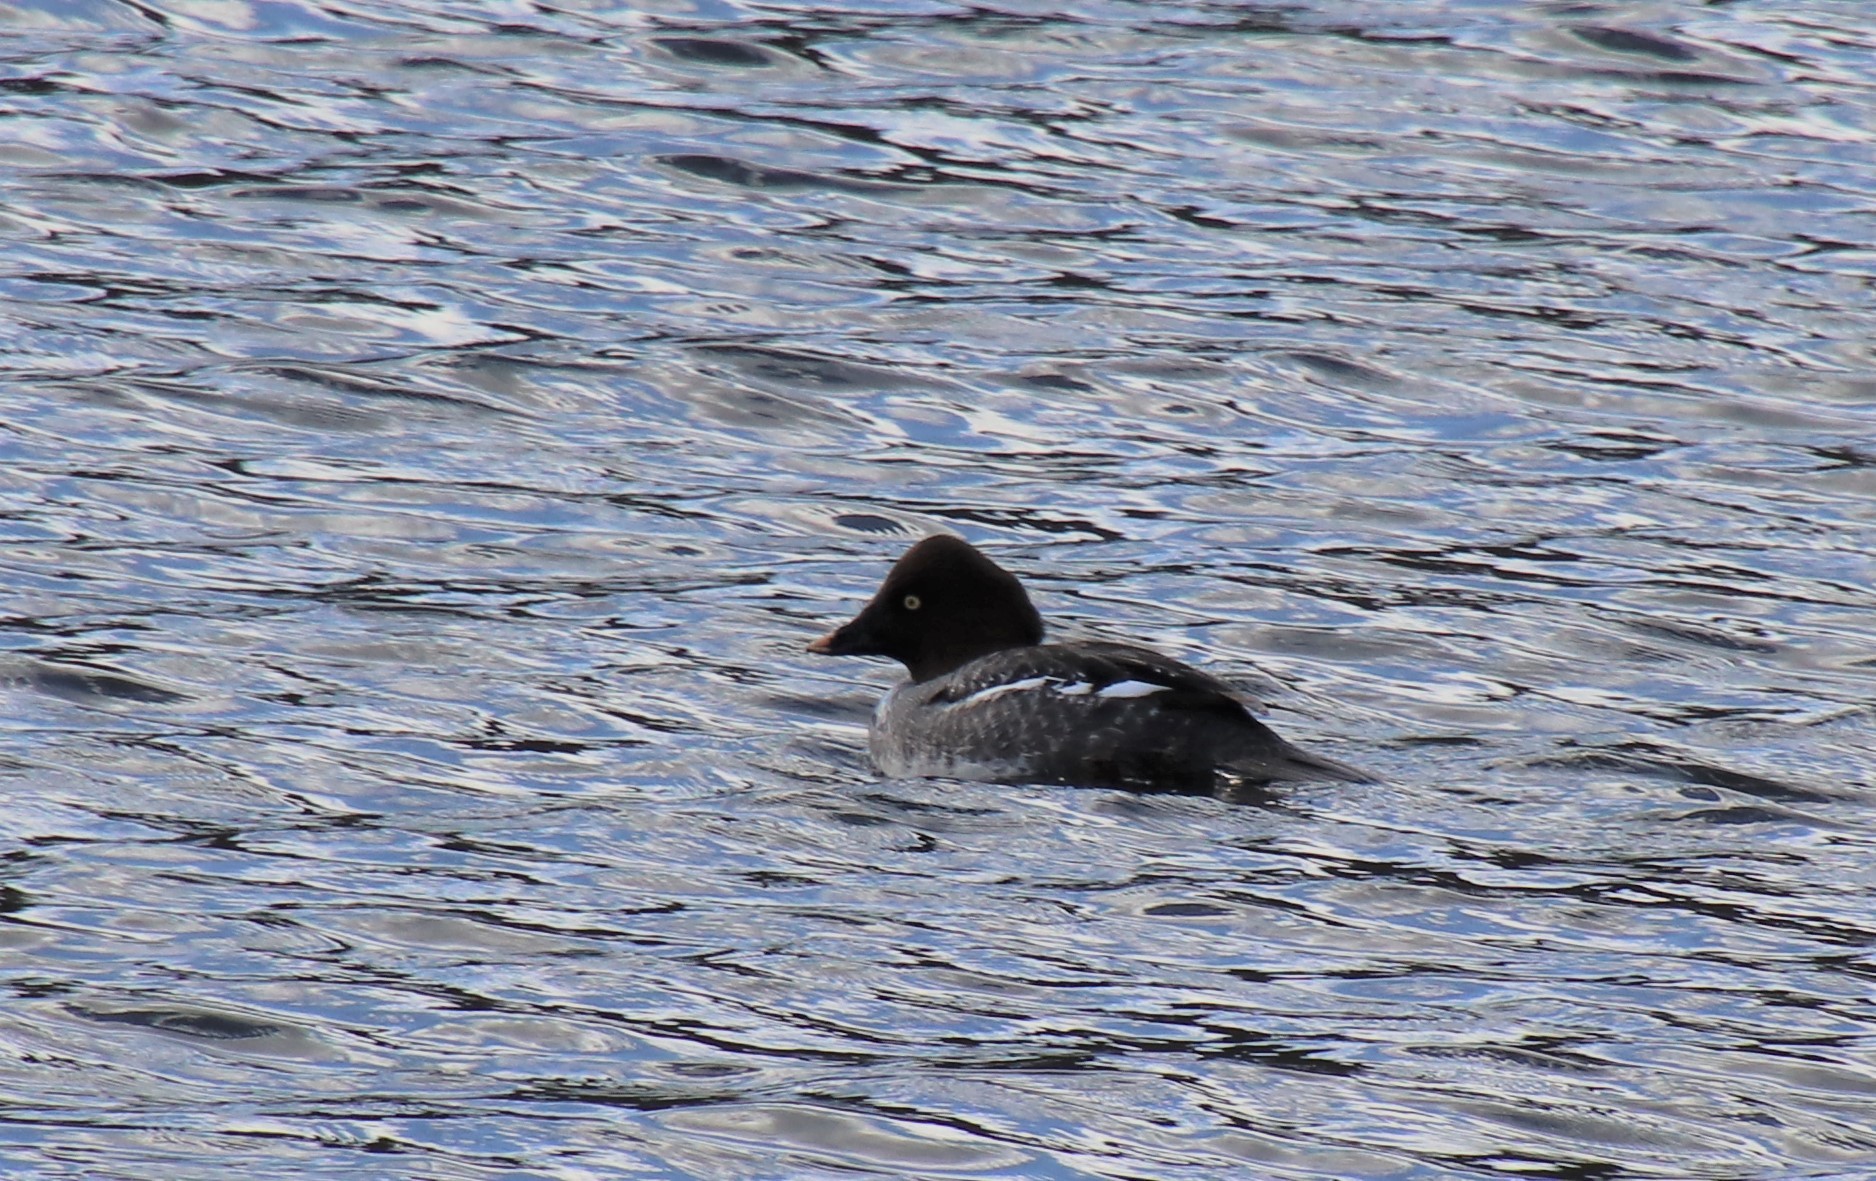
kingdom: Animalia
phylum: Chordata
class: Aves
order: Anseriformes
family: Anatidae
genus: Bucephala
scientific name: Bucephala clangula
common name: Common goldeneye
